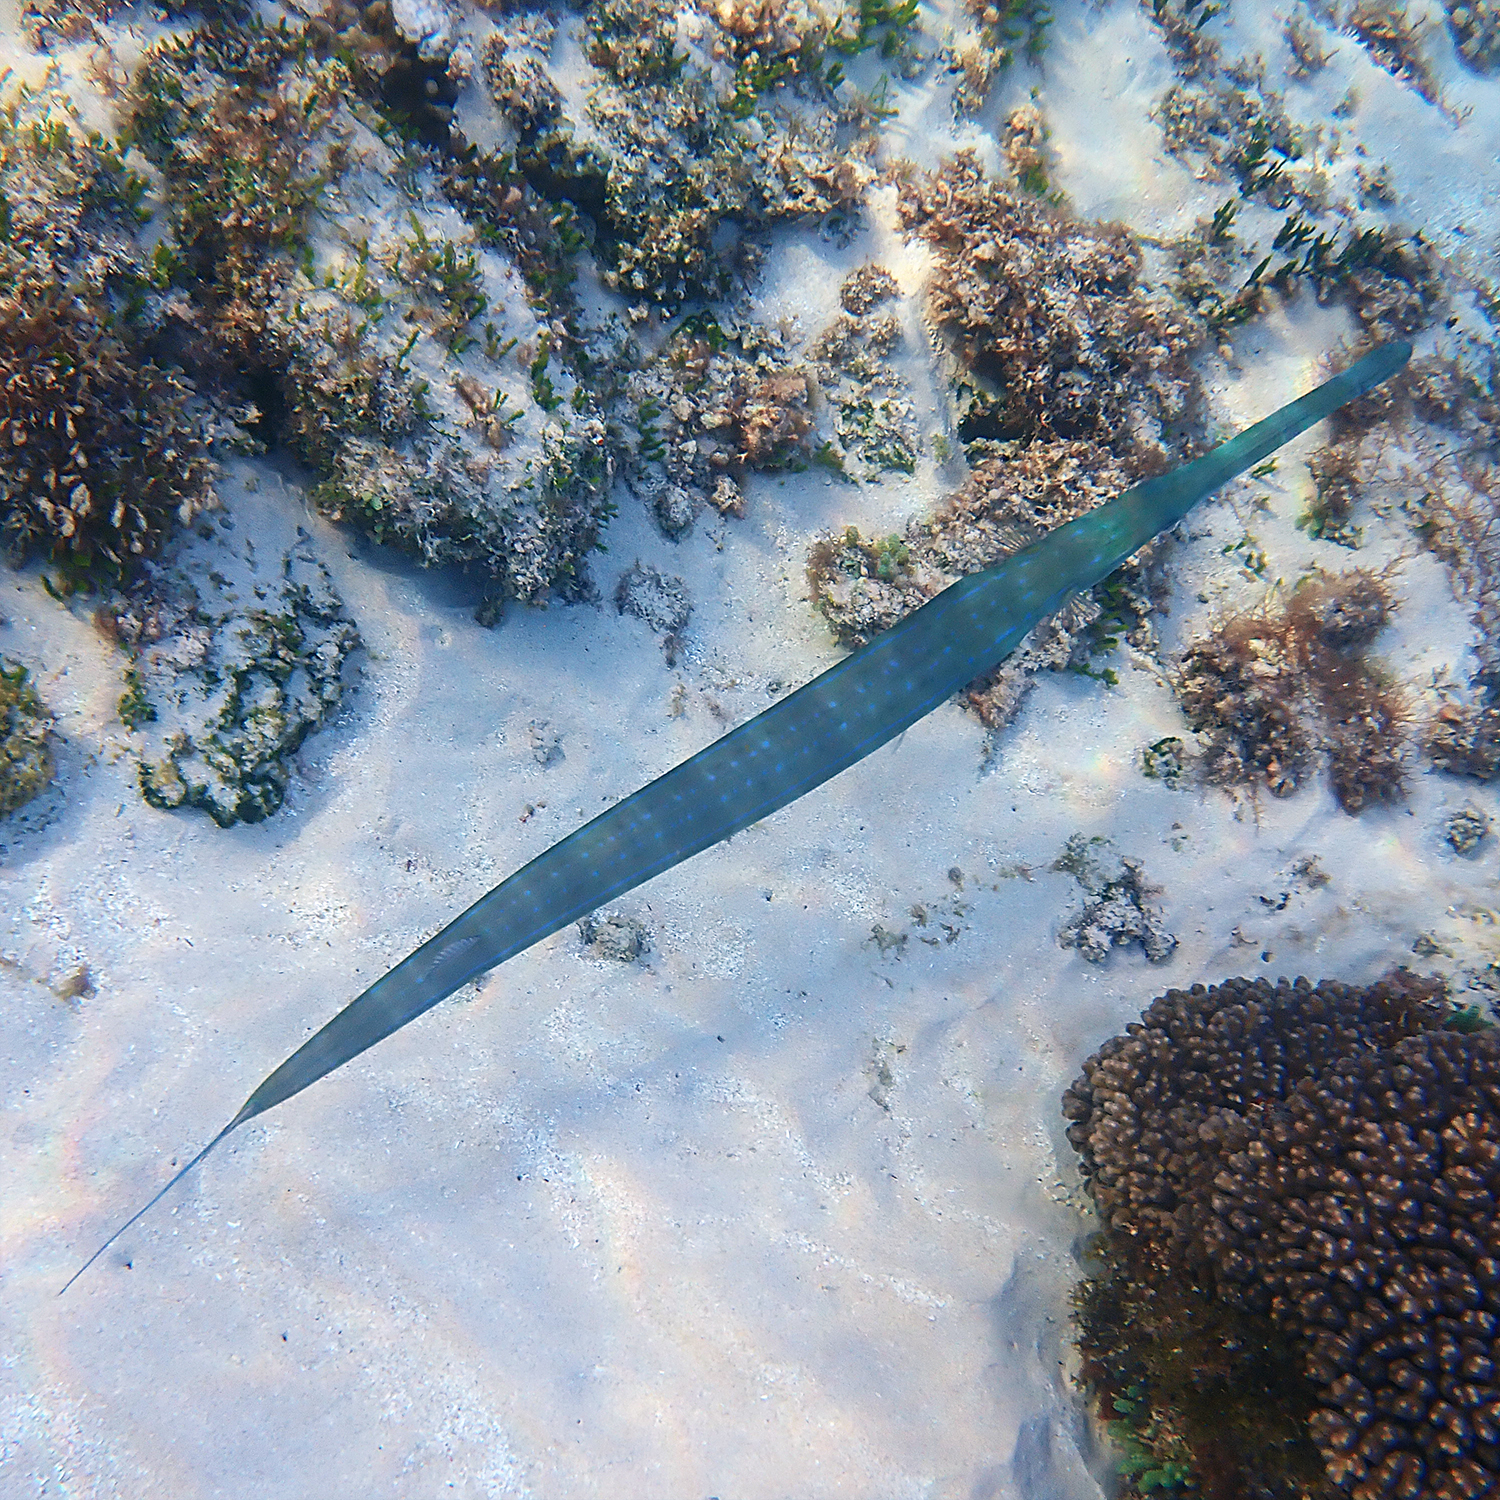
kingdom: Animalia
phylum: Chordata
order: Syngnathiformes
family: Fistulariidae
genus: Fistularia
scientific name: Fistularia commersonii
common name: Bluespotted cornetfish
